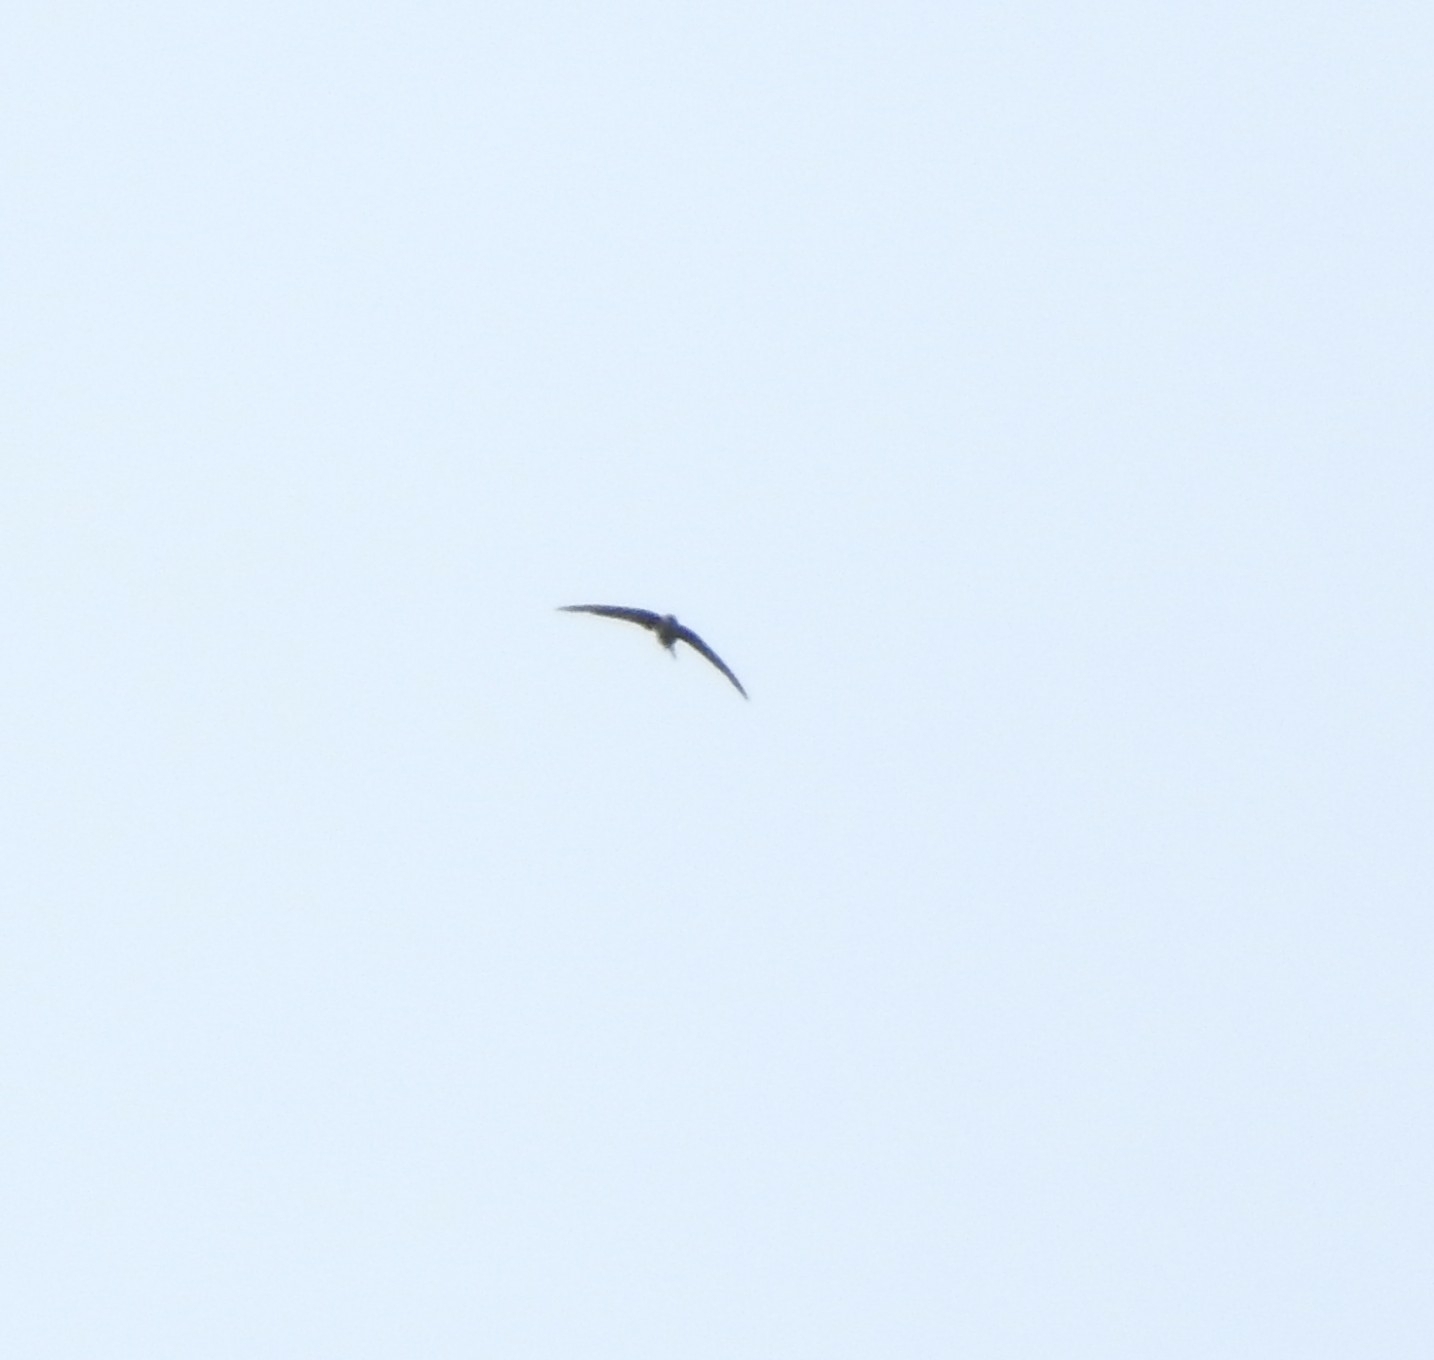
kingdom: Animalia
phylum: Chordata
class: Aves
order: Apodiformes
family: Apodidae
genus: Cypsiurus
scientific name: Cypsiurus balasiensis
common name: Asian palm swift
